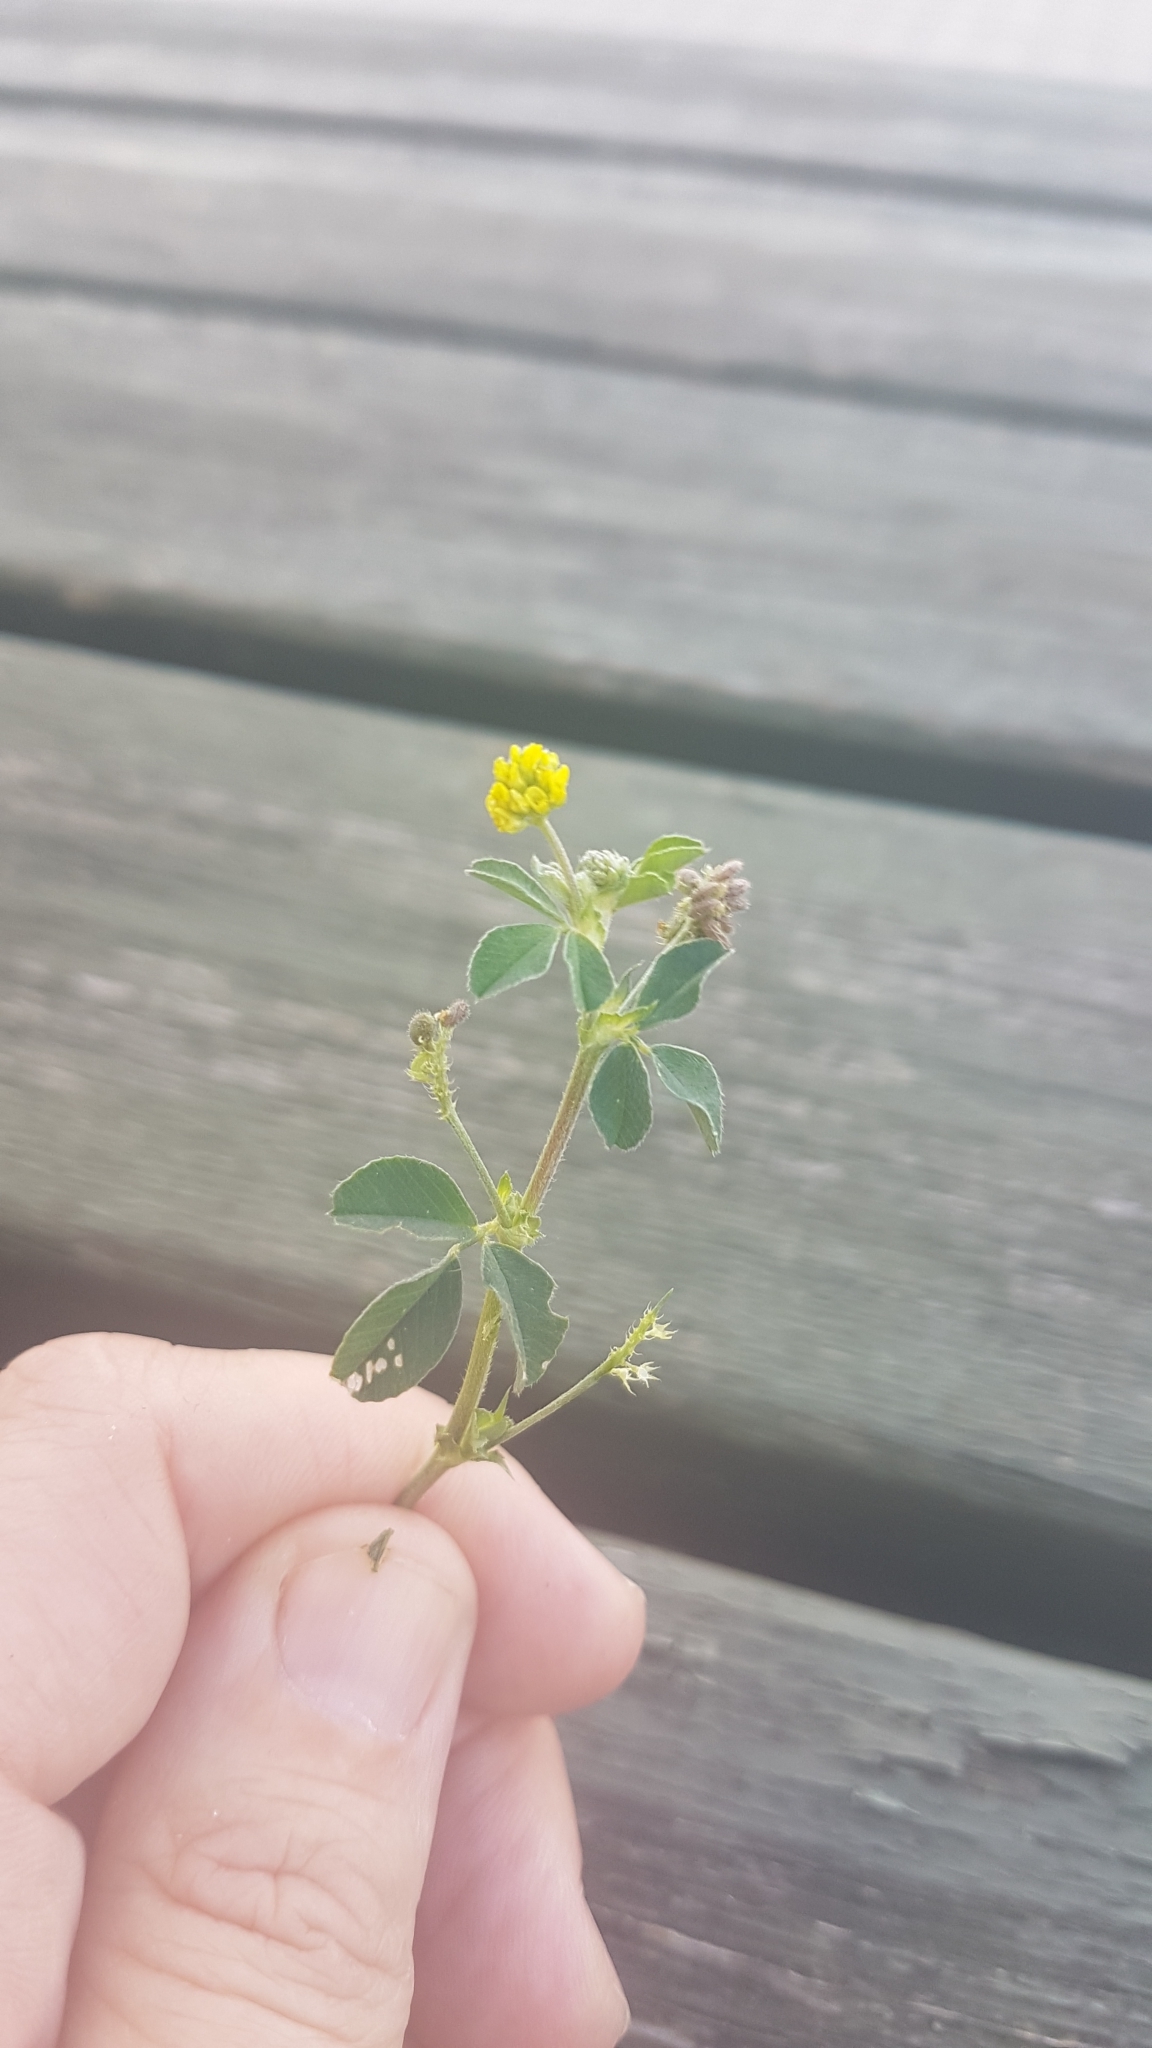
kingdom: Plantae
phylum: Tracheophyta
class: Magnoliopsida
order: Fabales
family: Fabaceae
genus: Medicago
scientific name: Medicago lupulina
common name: Black medick
